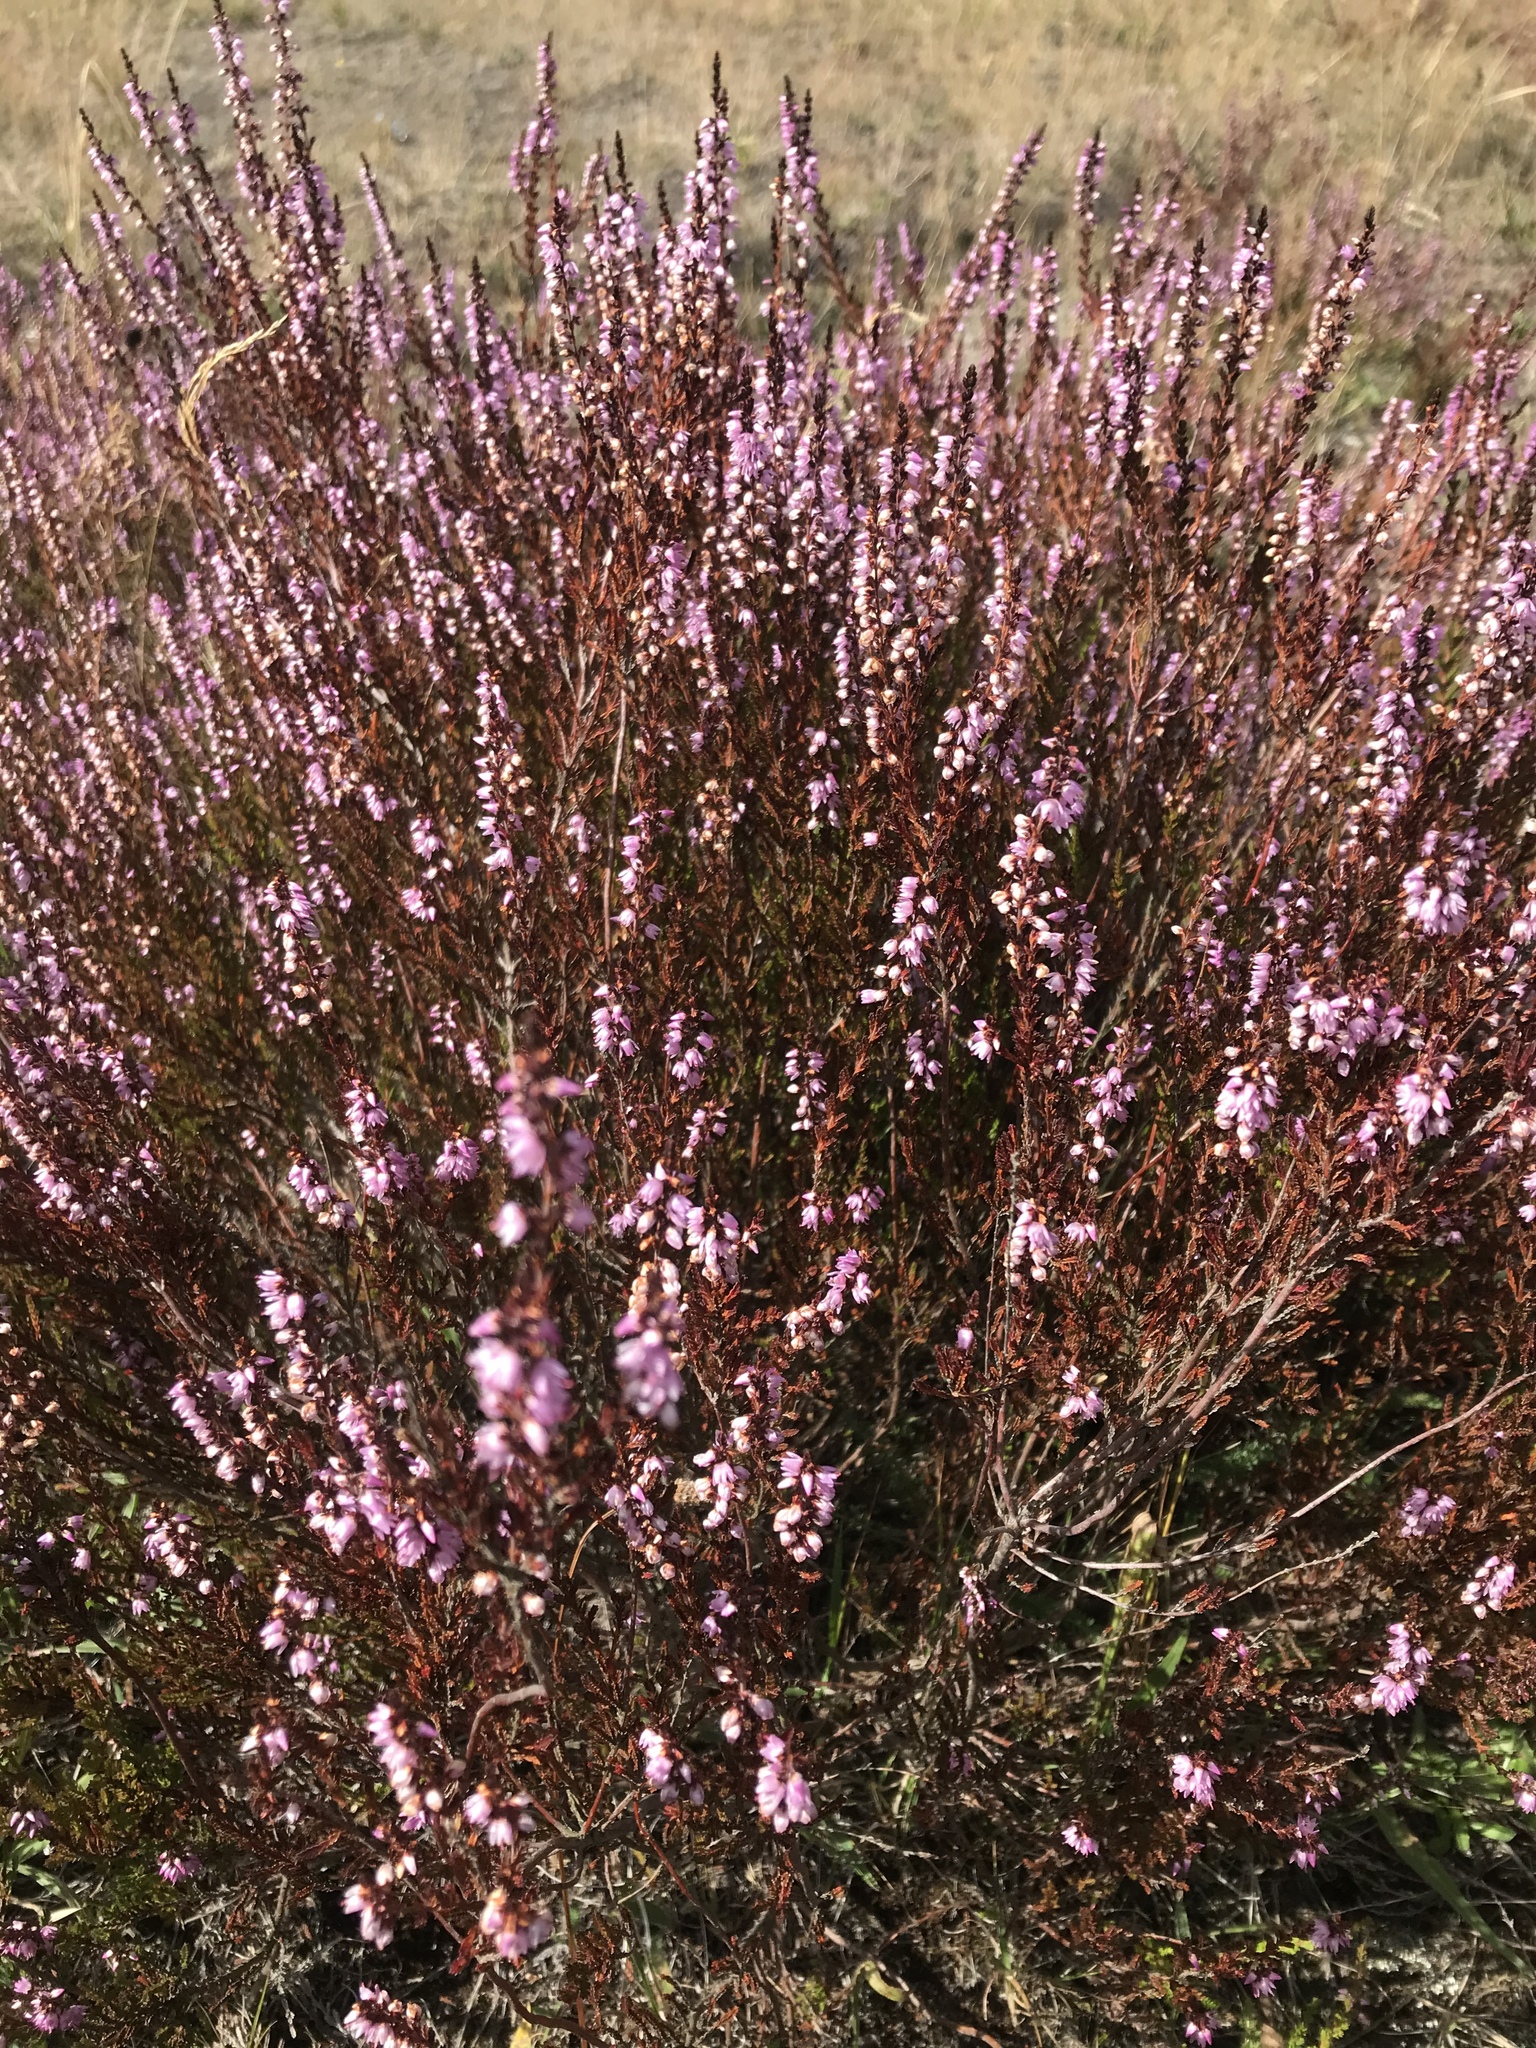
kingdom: Plantae
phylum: Tracheophyta
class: Magnoliopsida
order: Ericales
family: Ericaceae
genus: Calluna
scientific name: Calluna vulgaris
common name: Heather
